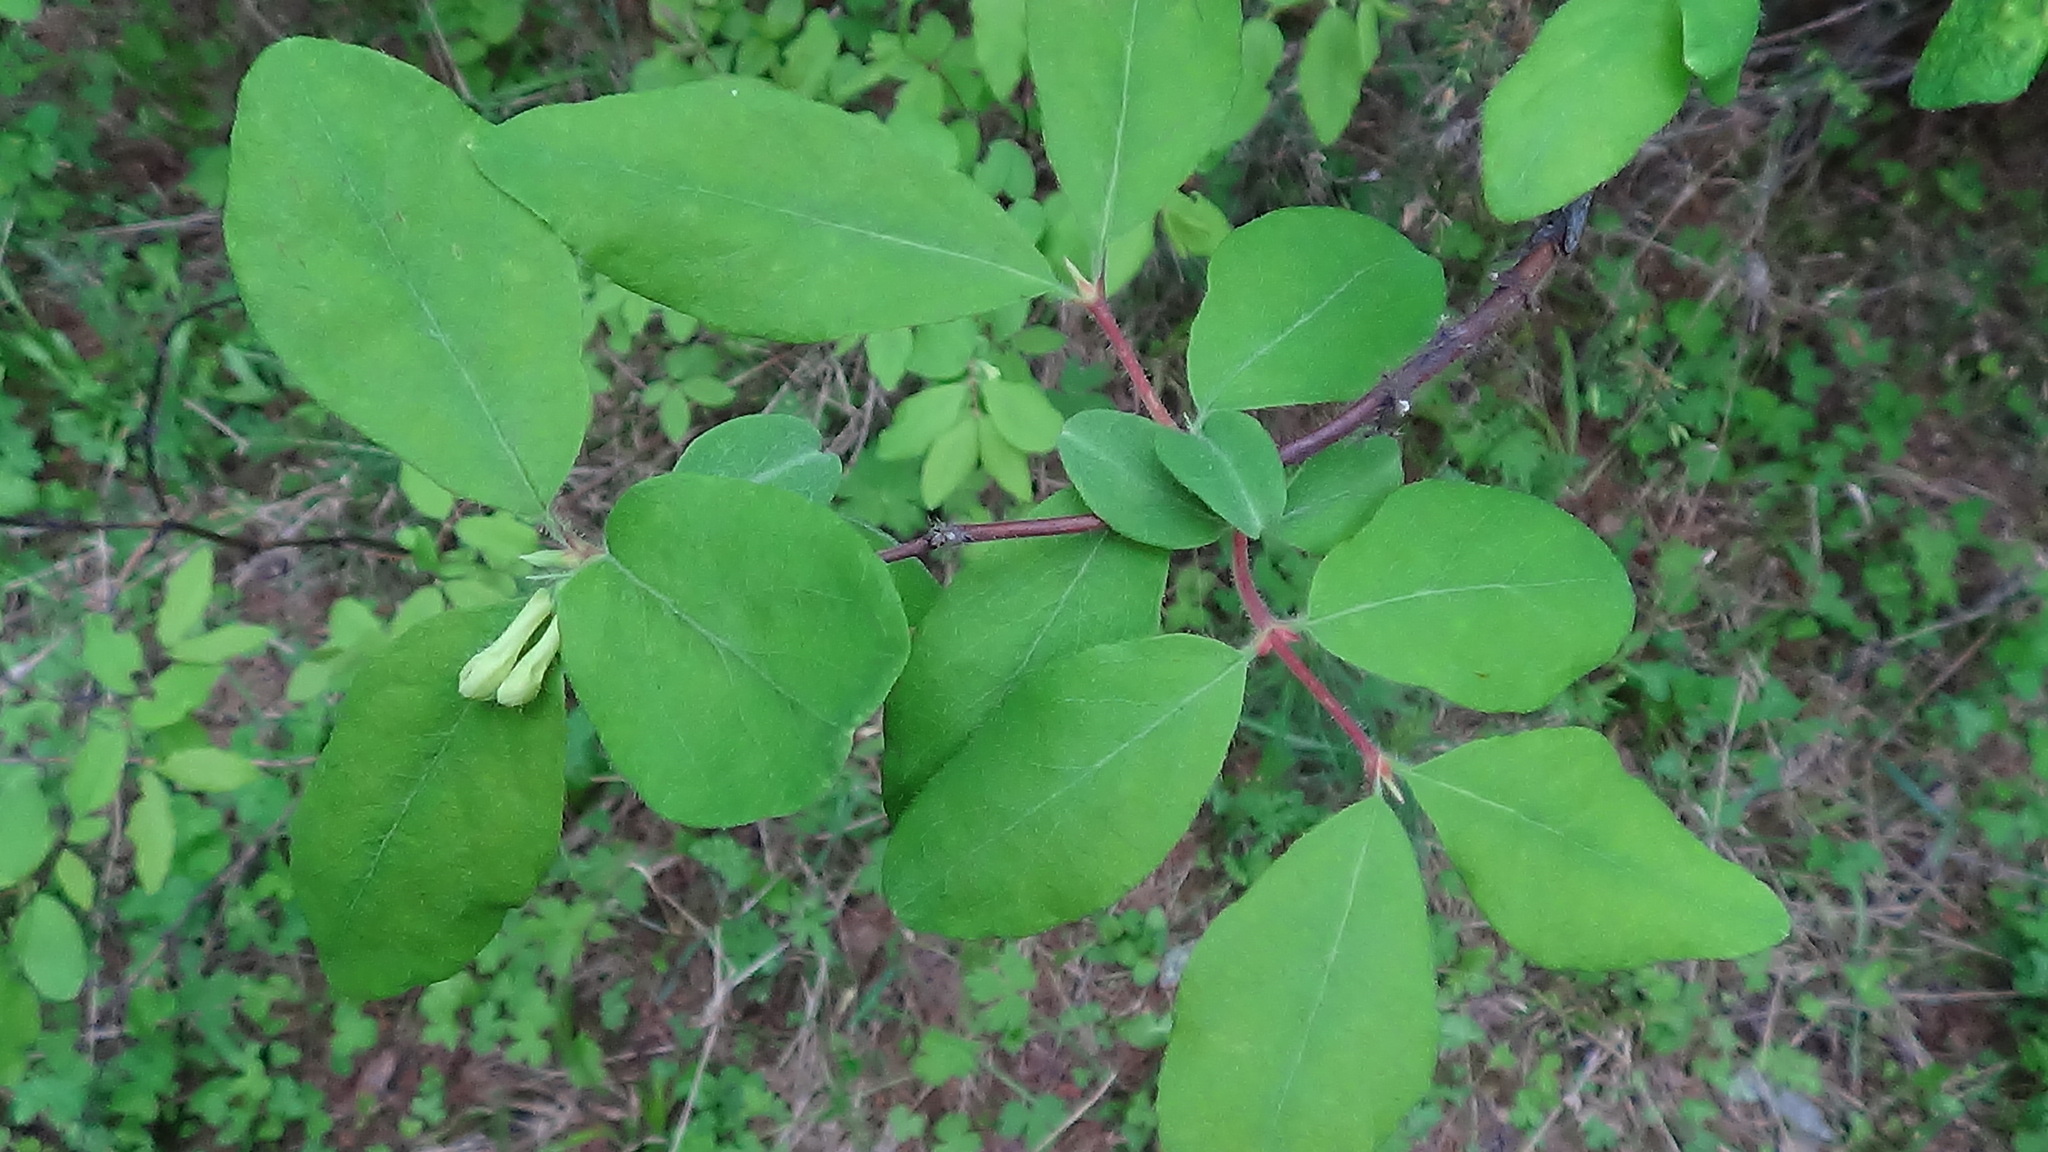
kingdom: Plantae
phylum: Tracheophyta
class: Magnoliopsida
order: Dipsacales
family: Caprifoliaceae
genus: Lonicera
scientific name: Lonicera caerulea
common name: Blue honeysuckle
